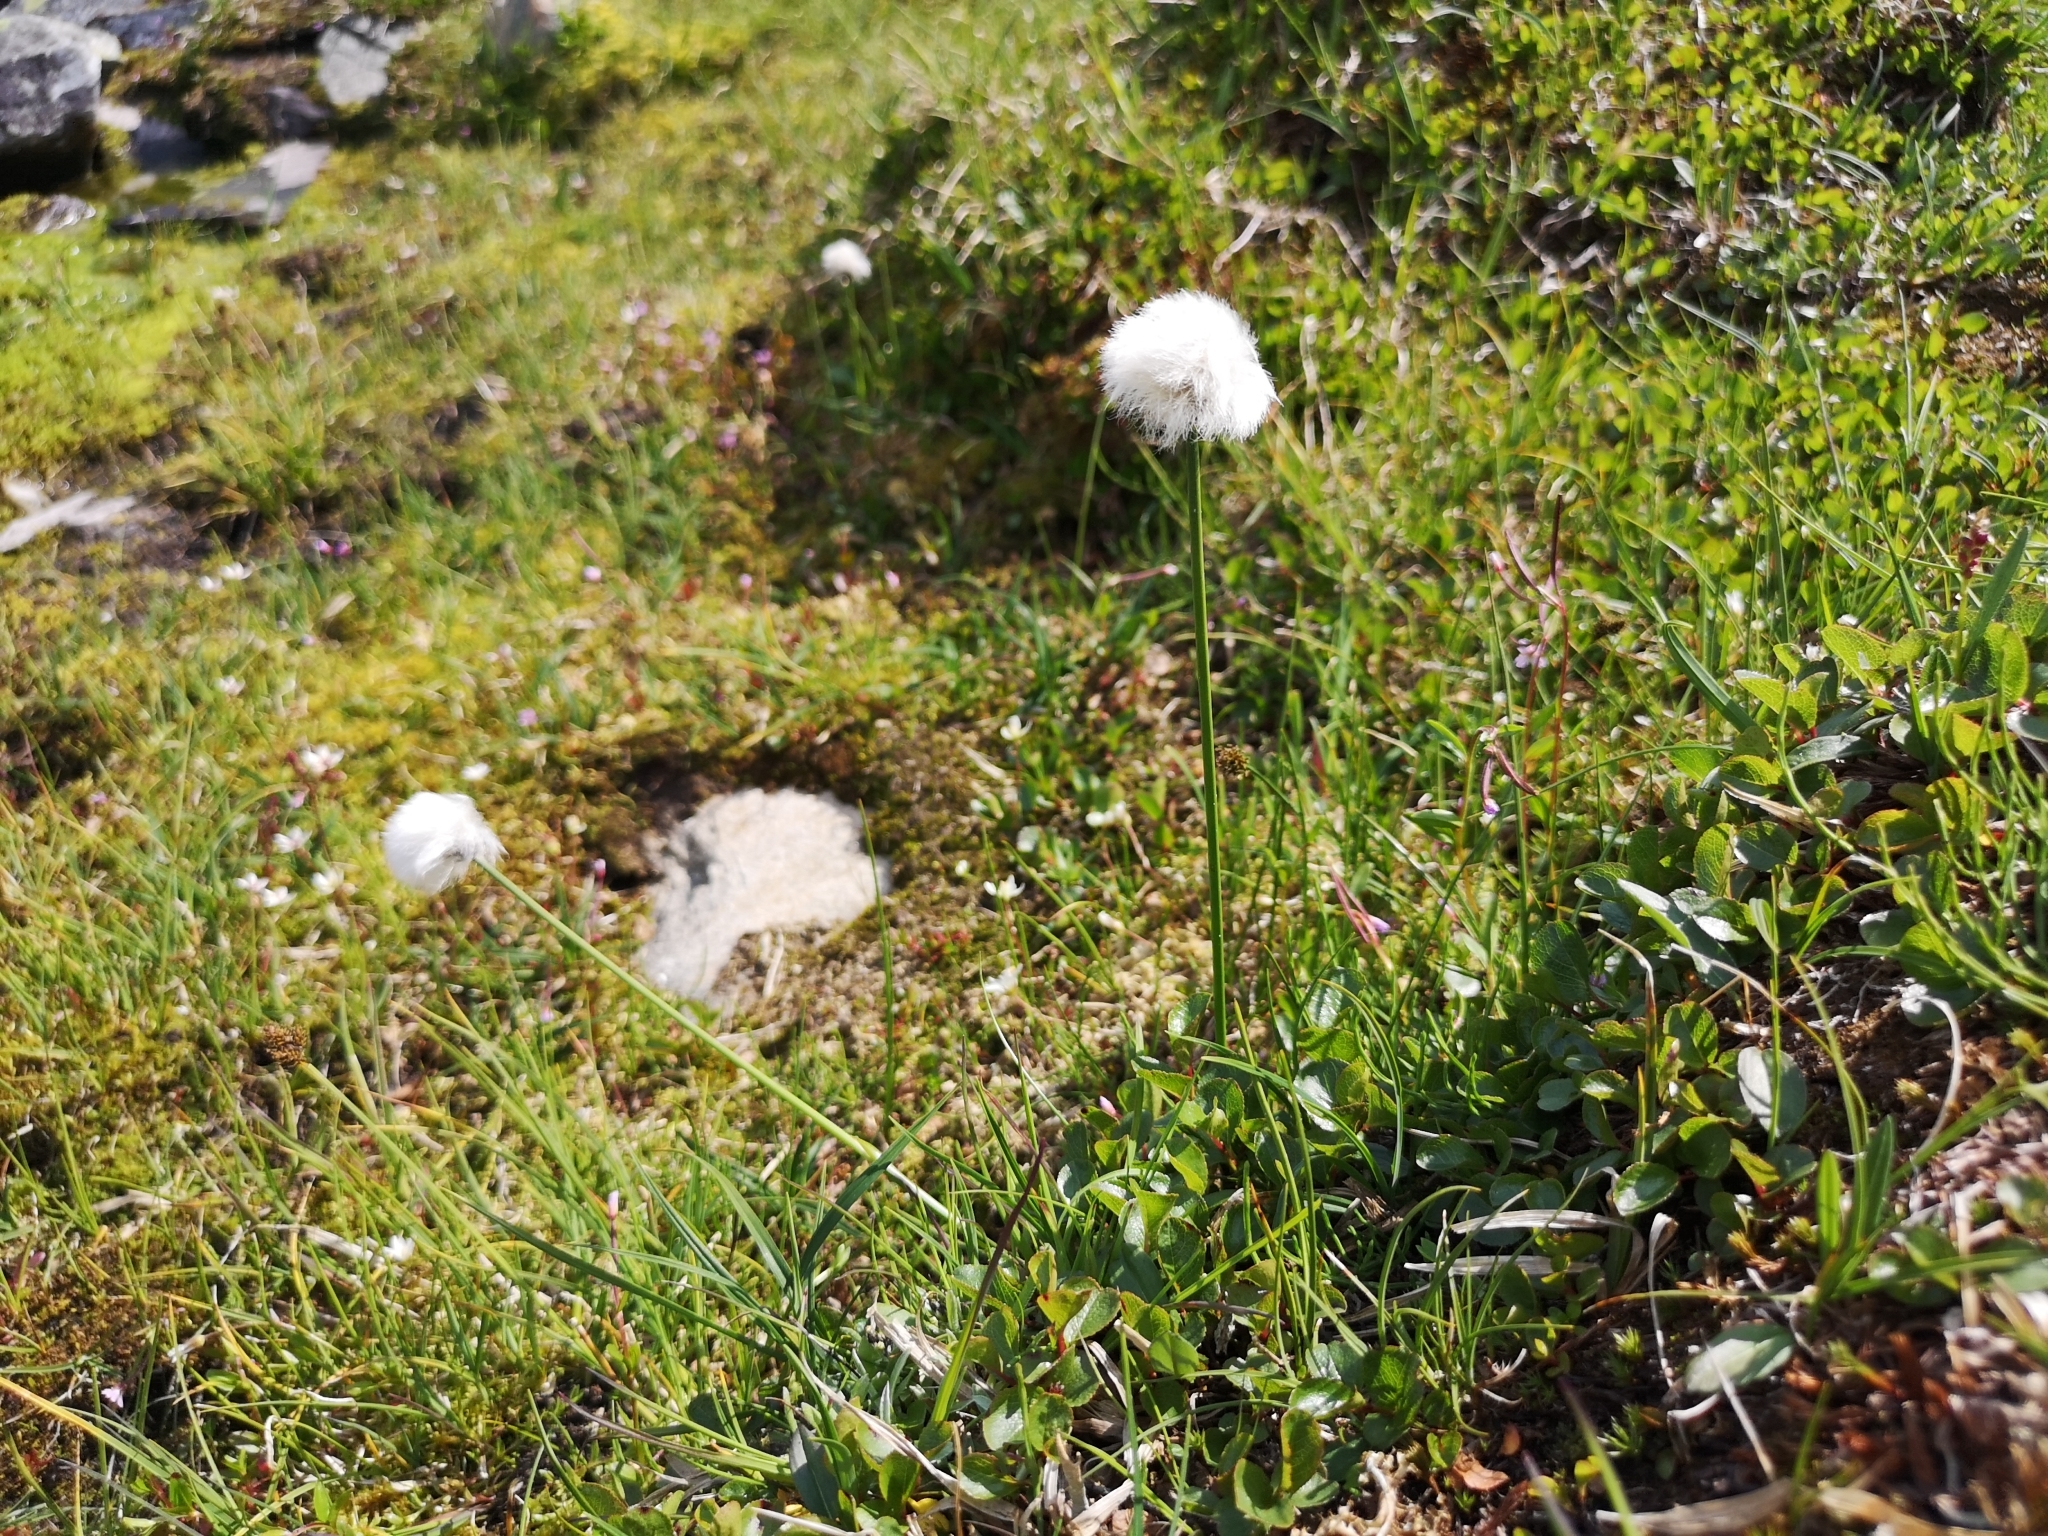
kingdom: Plantae
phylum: Tracheophyta
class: Liliopsida
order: Poales
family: Cyperaceae
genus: Eriophorum
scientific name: Eriophorum scheuchzeri
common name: Scheuchzer's cottongrass
